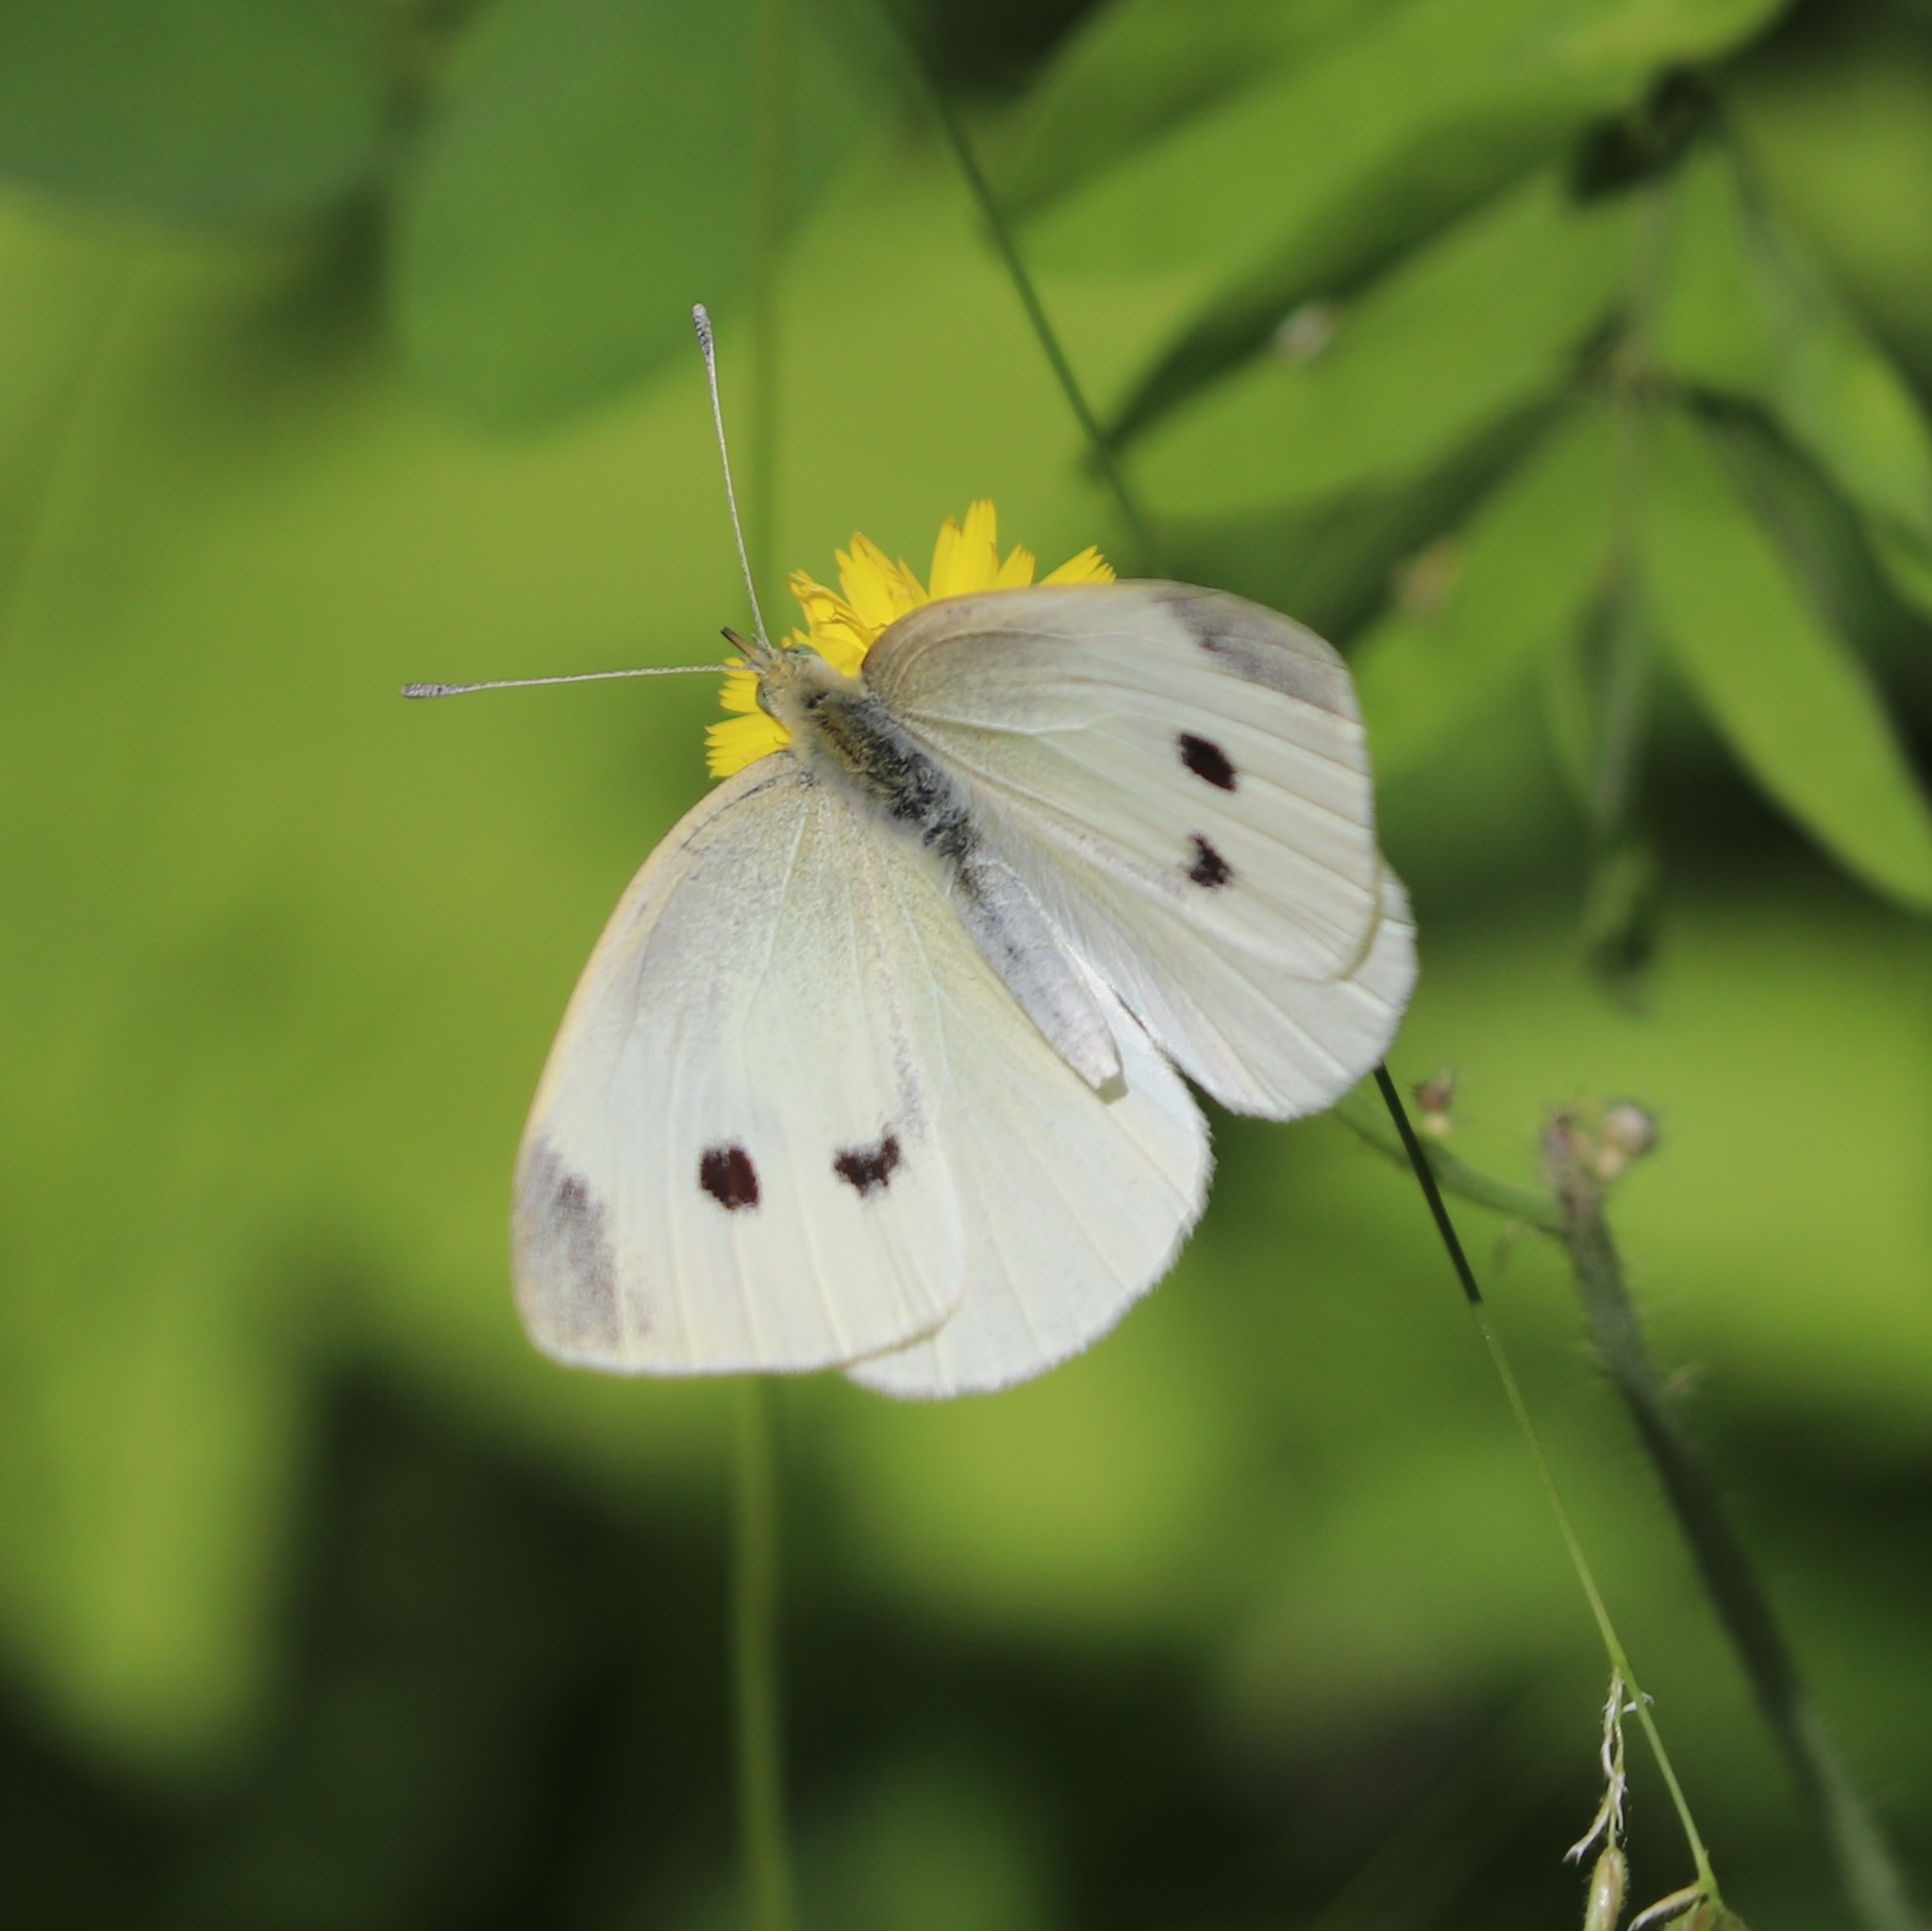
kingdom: Animalia
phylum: Arthropoda
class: Insecta
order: Lepidoptera
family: Pieridae
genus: Pieris
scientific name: Pieris rapae
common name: Small white
